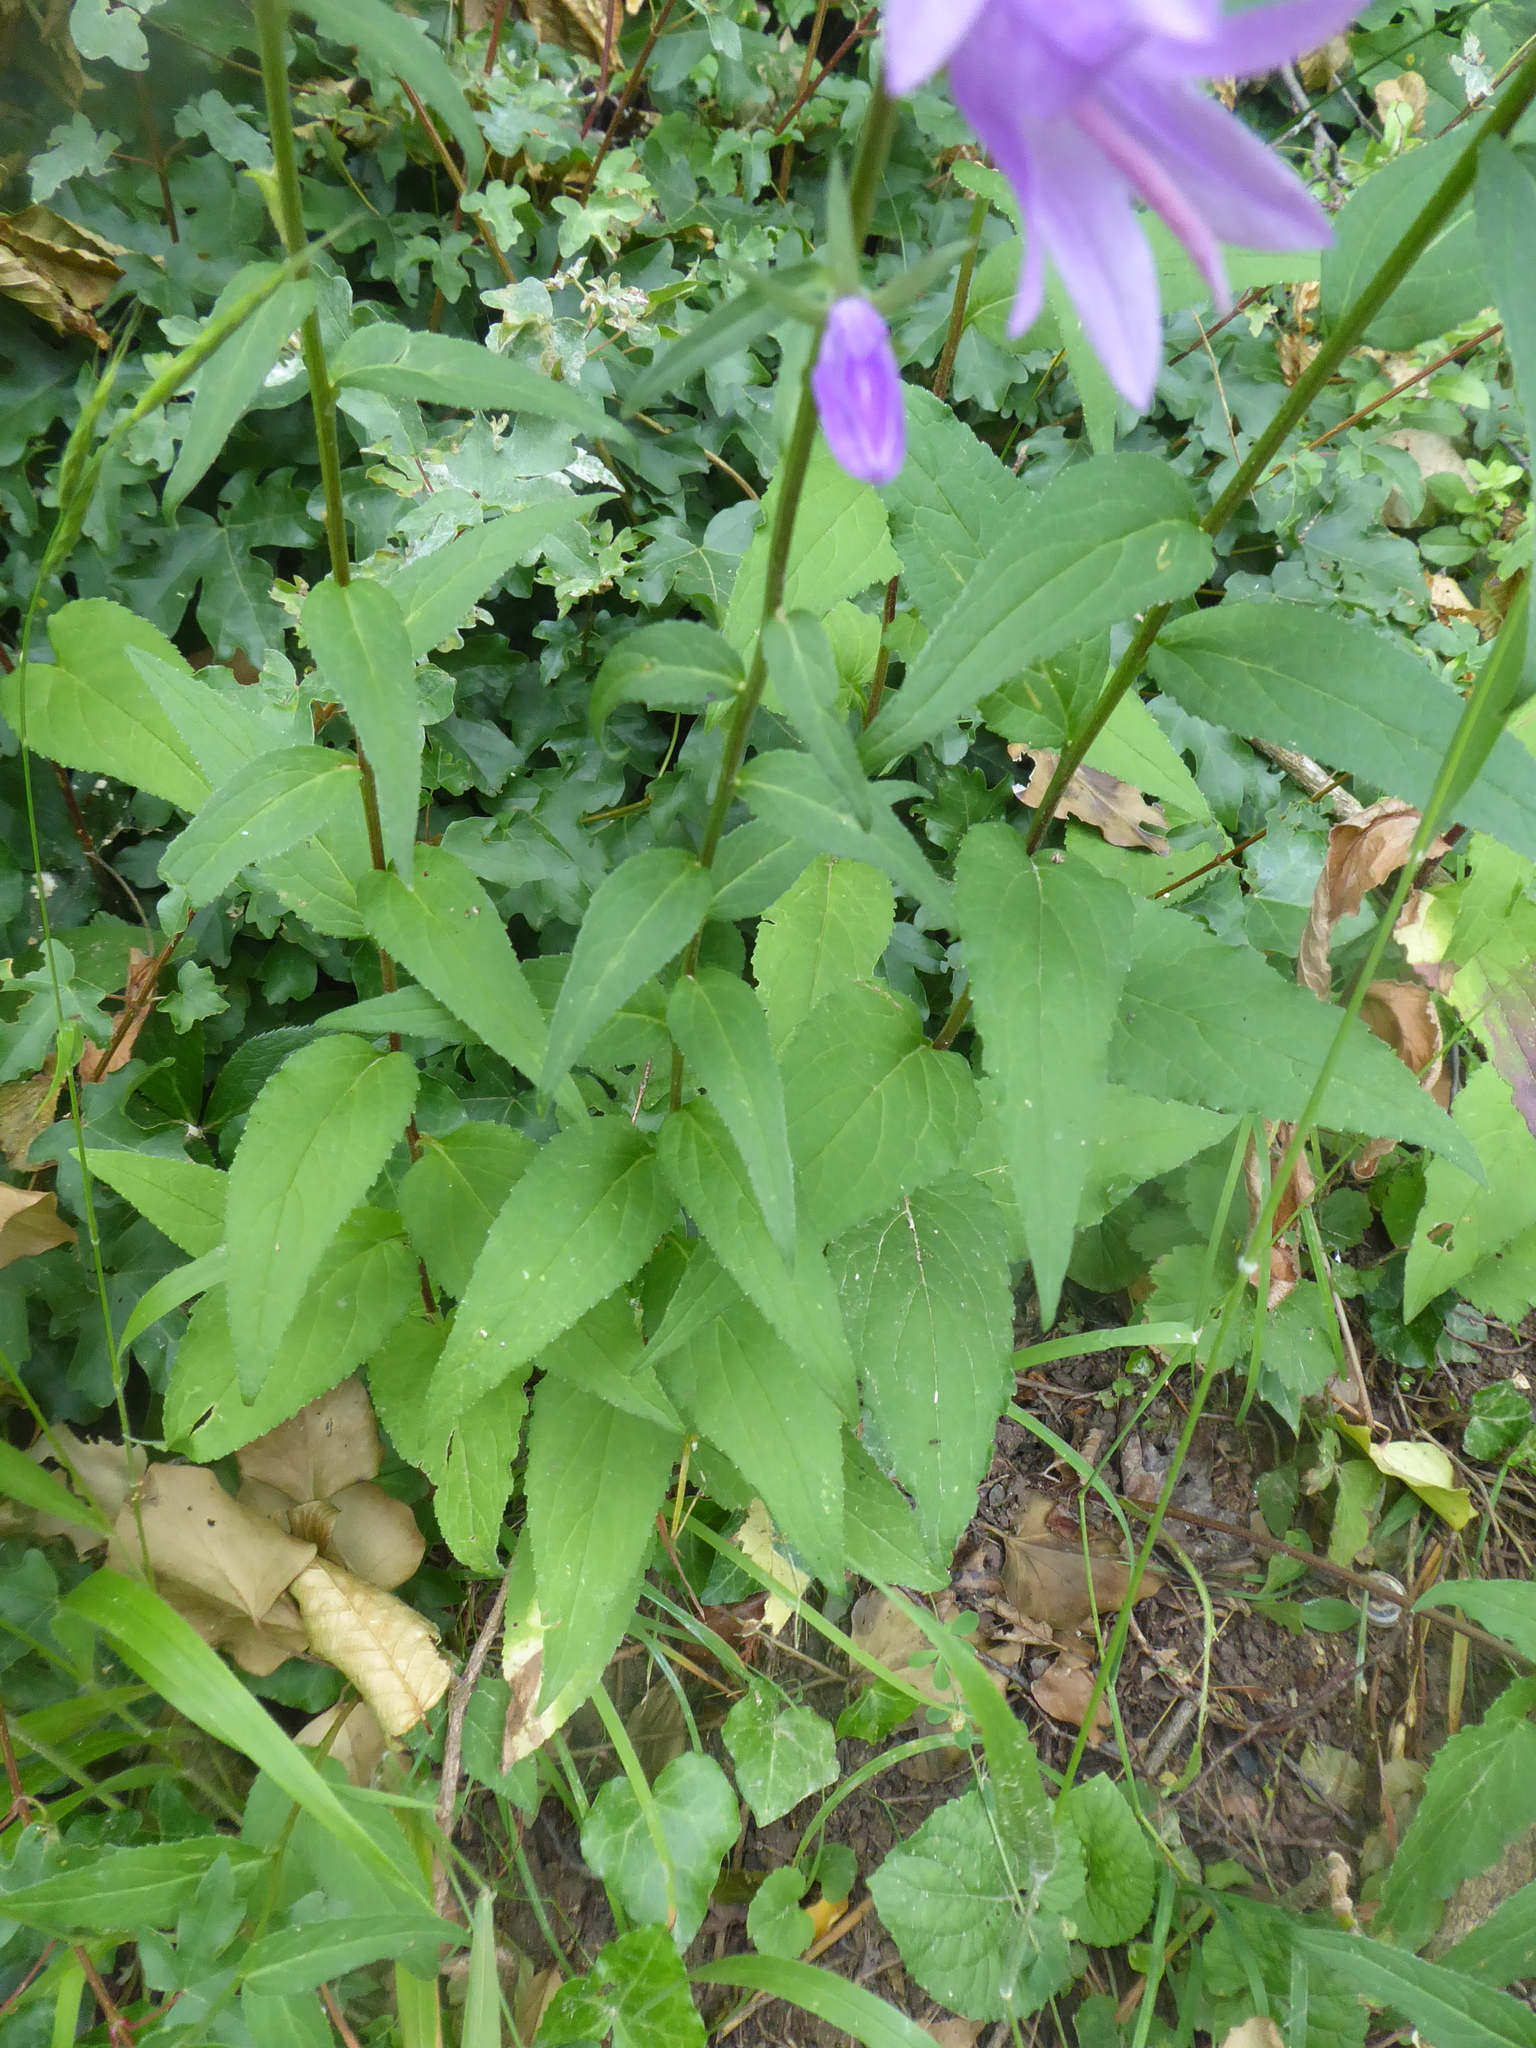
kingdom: Plantae
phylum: Tracheophyta
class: Magnoliopsida
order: Asterales
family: Campanulaceae
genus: Campanula
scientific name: Campanula rapunculoides
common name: Creeping bellflower
